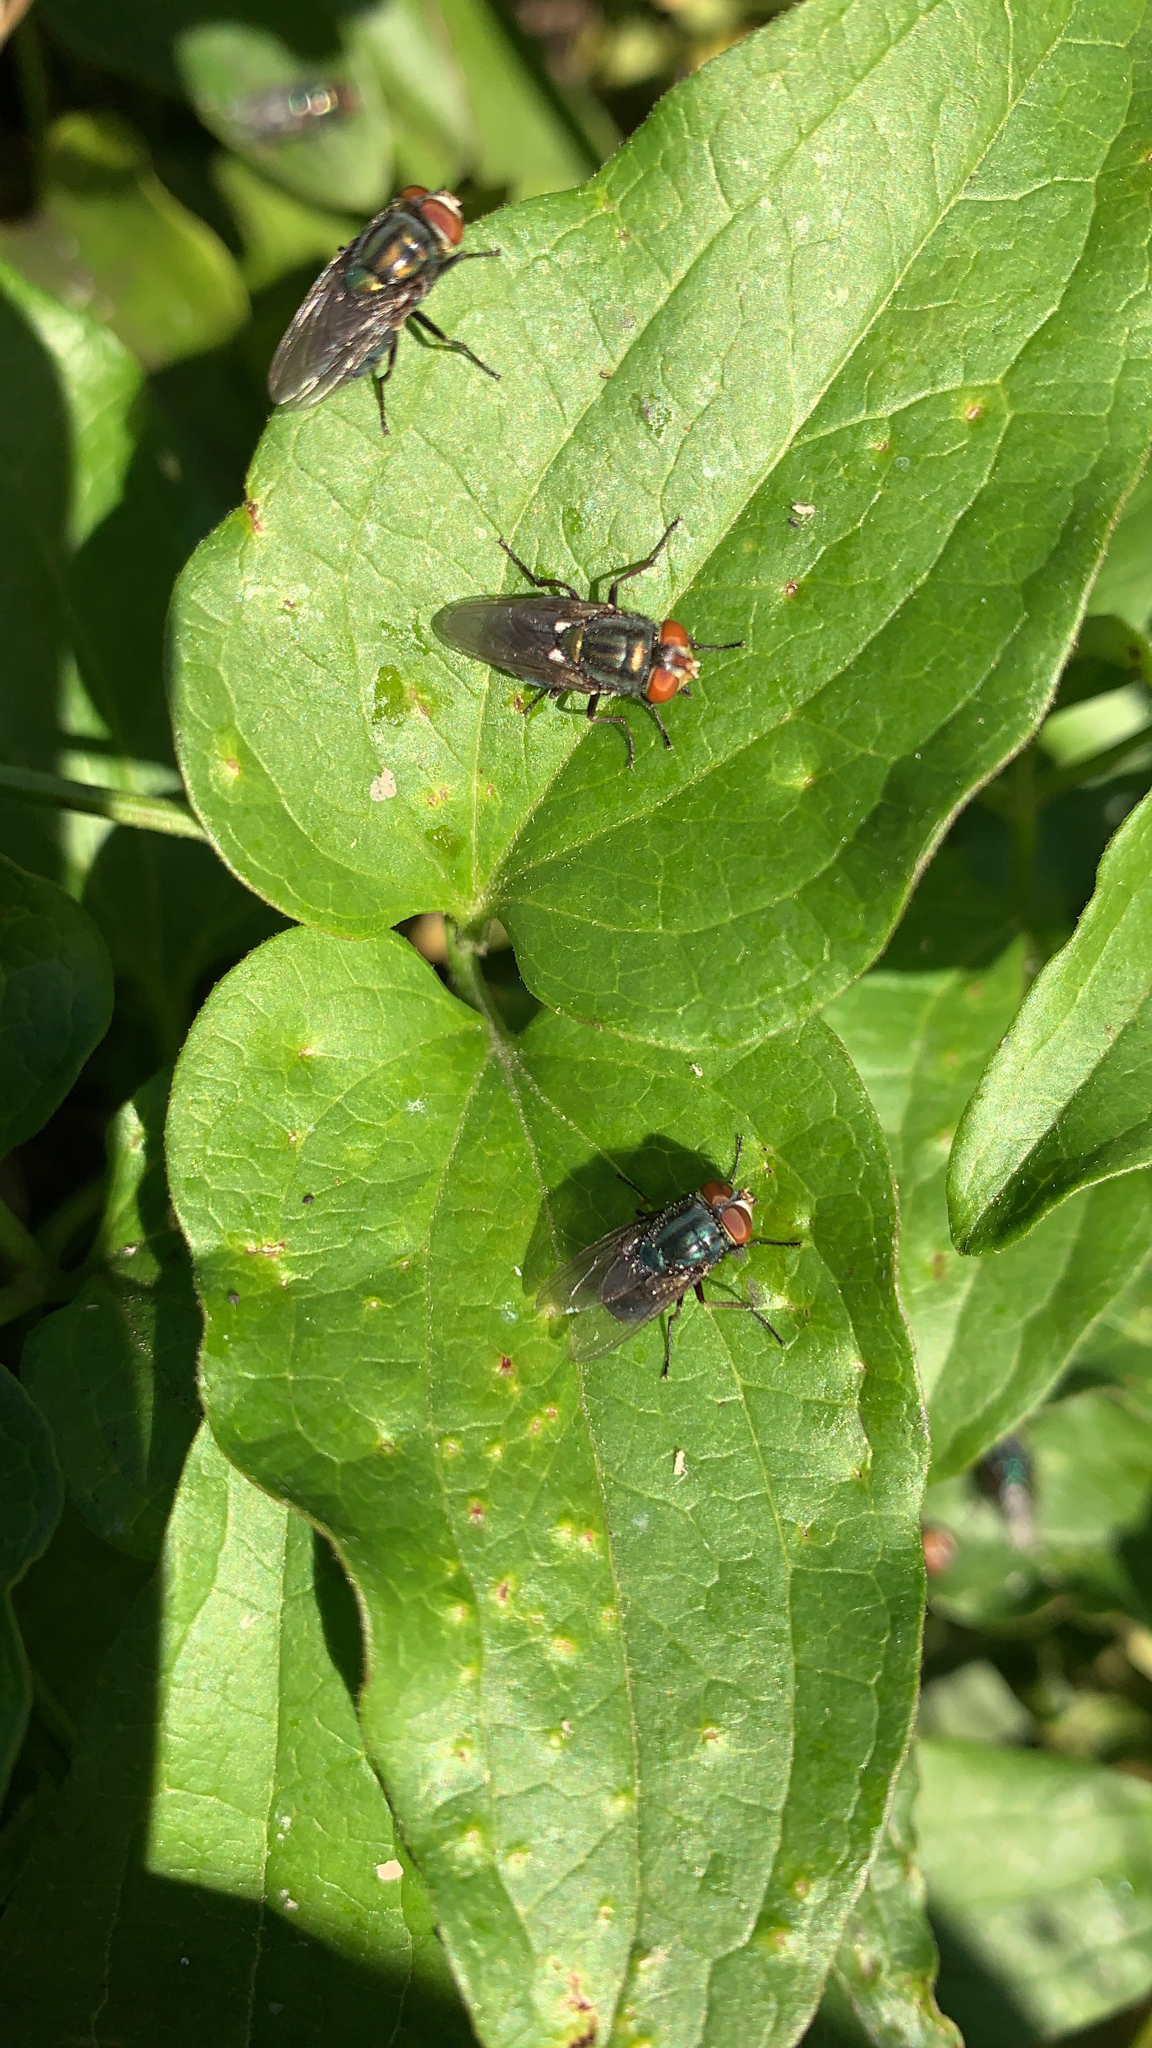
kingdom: Animalia
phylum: Arthropoda
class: Insecta
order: Diptera
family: Calliphoridae
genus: Cochliomyia
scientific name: Cochliomyia macellaria
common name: Secondary screwworm
